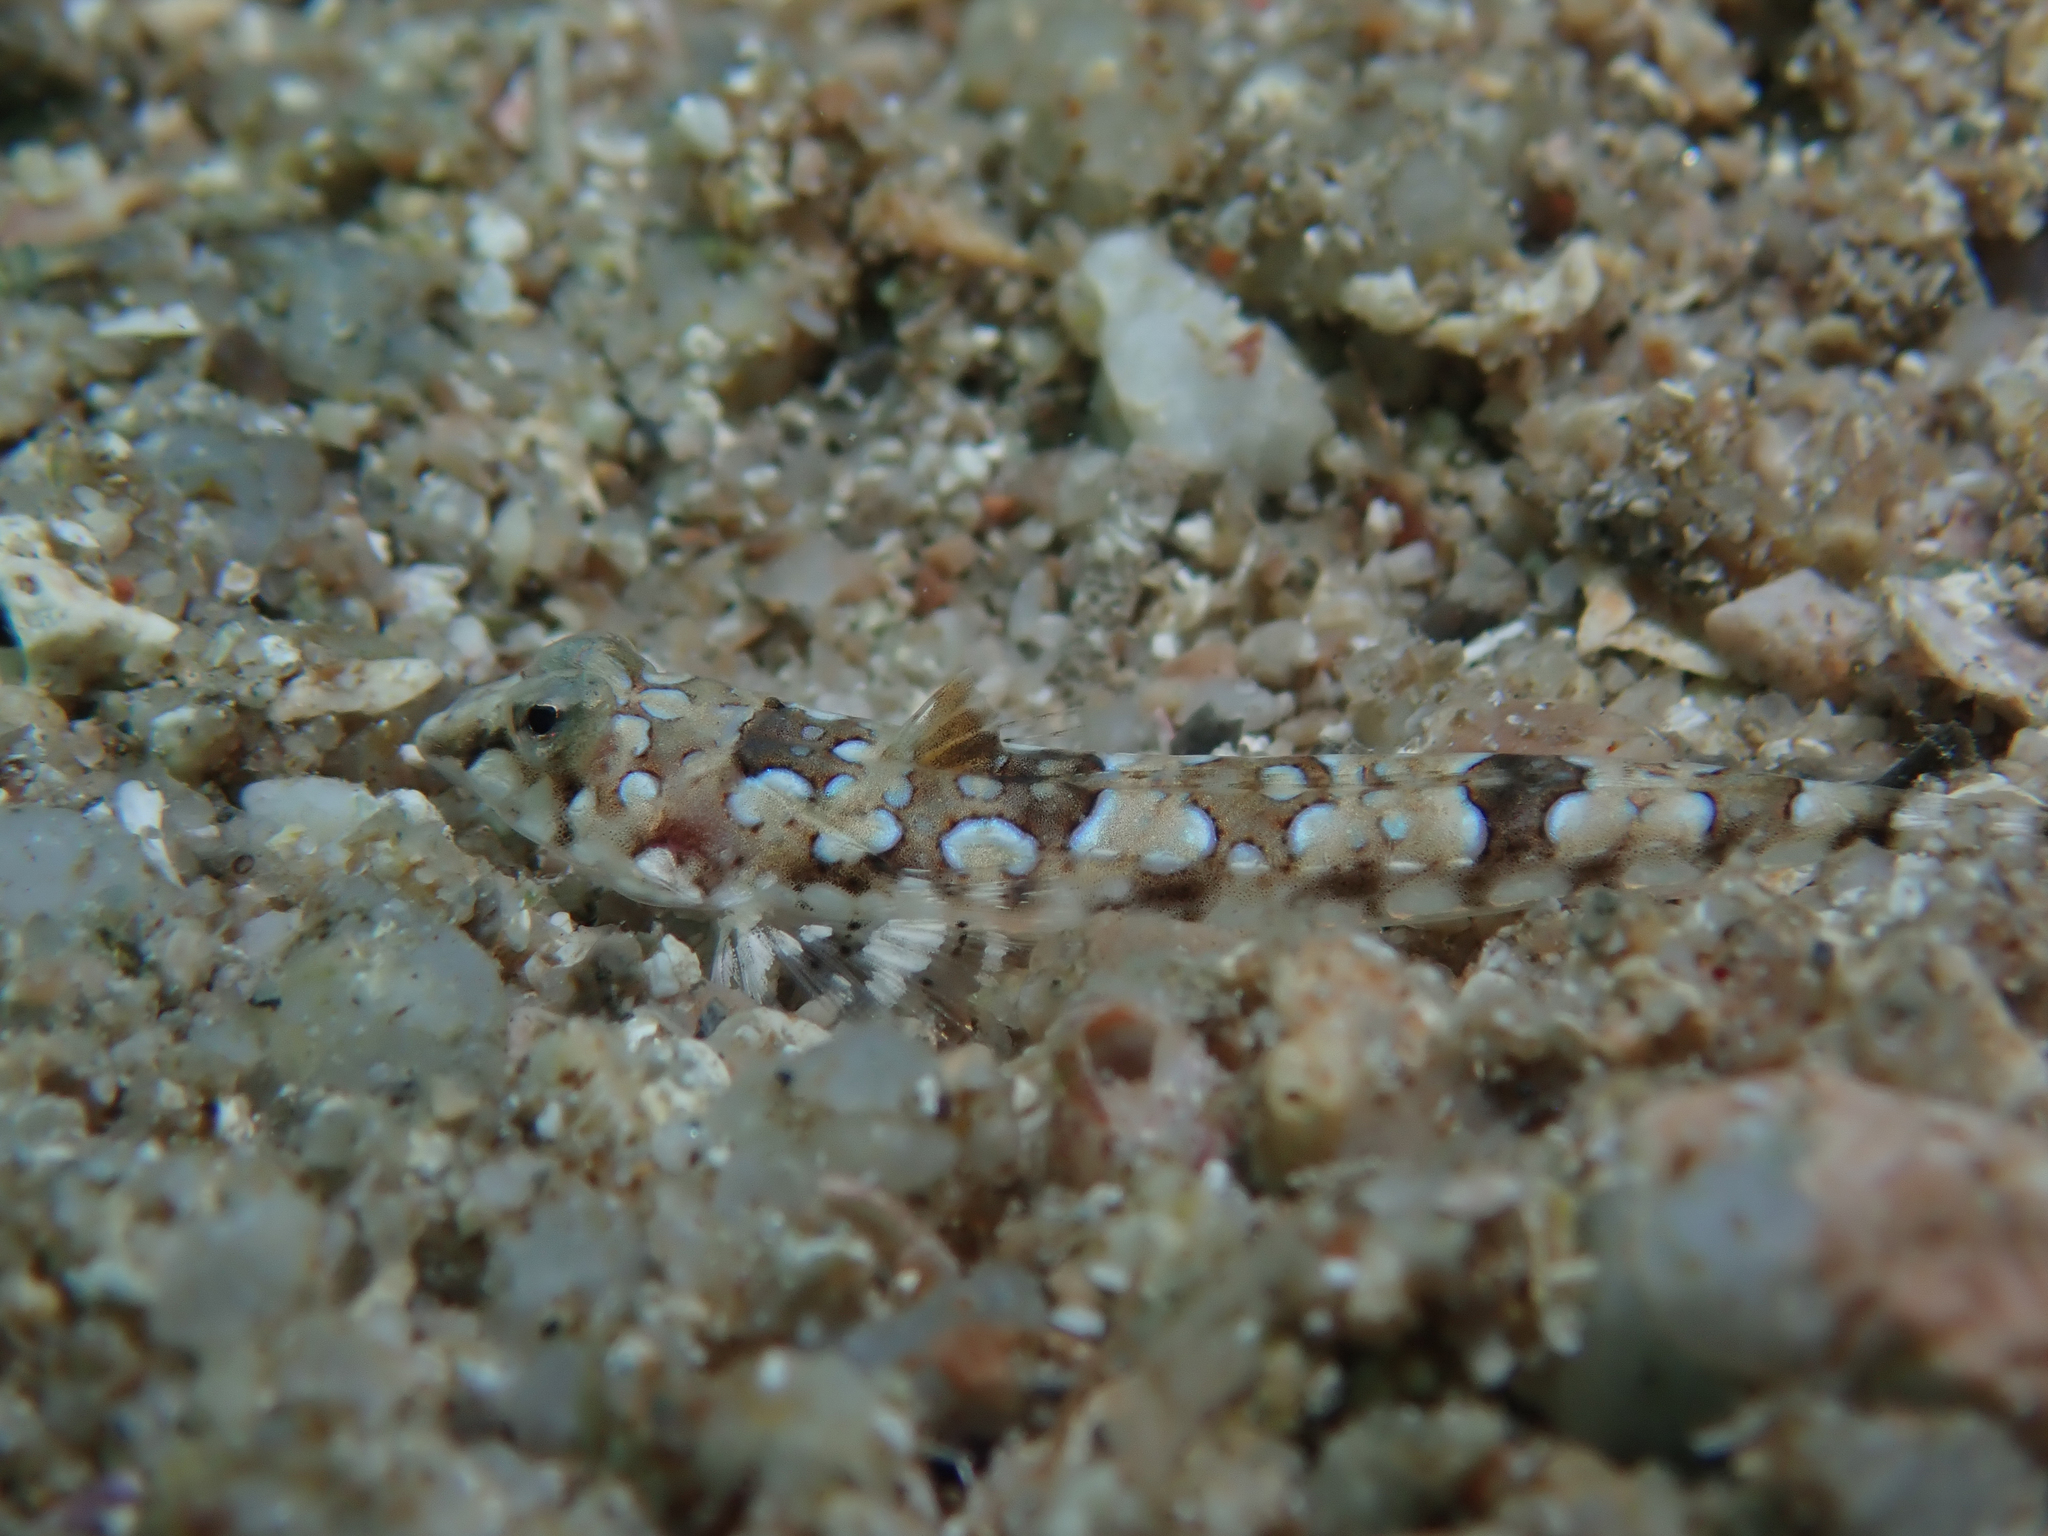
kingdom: Animalia
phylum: Chordata
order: Perciformes
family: Callionymidae
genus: Callionymus
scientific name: Callionymus reticulatus
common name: Reticulated dragonet
